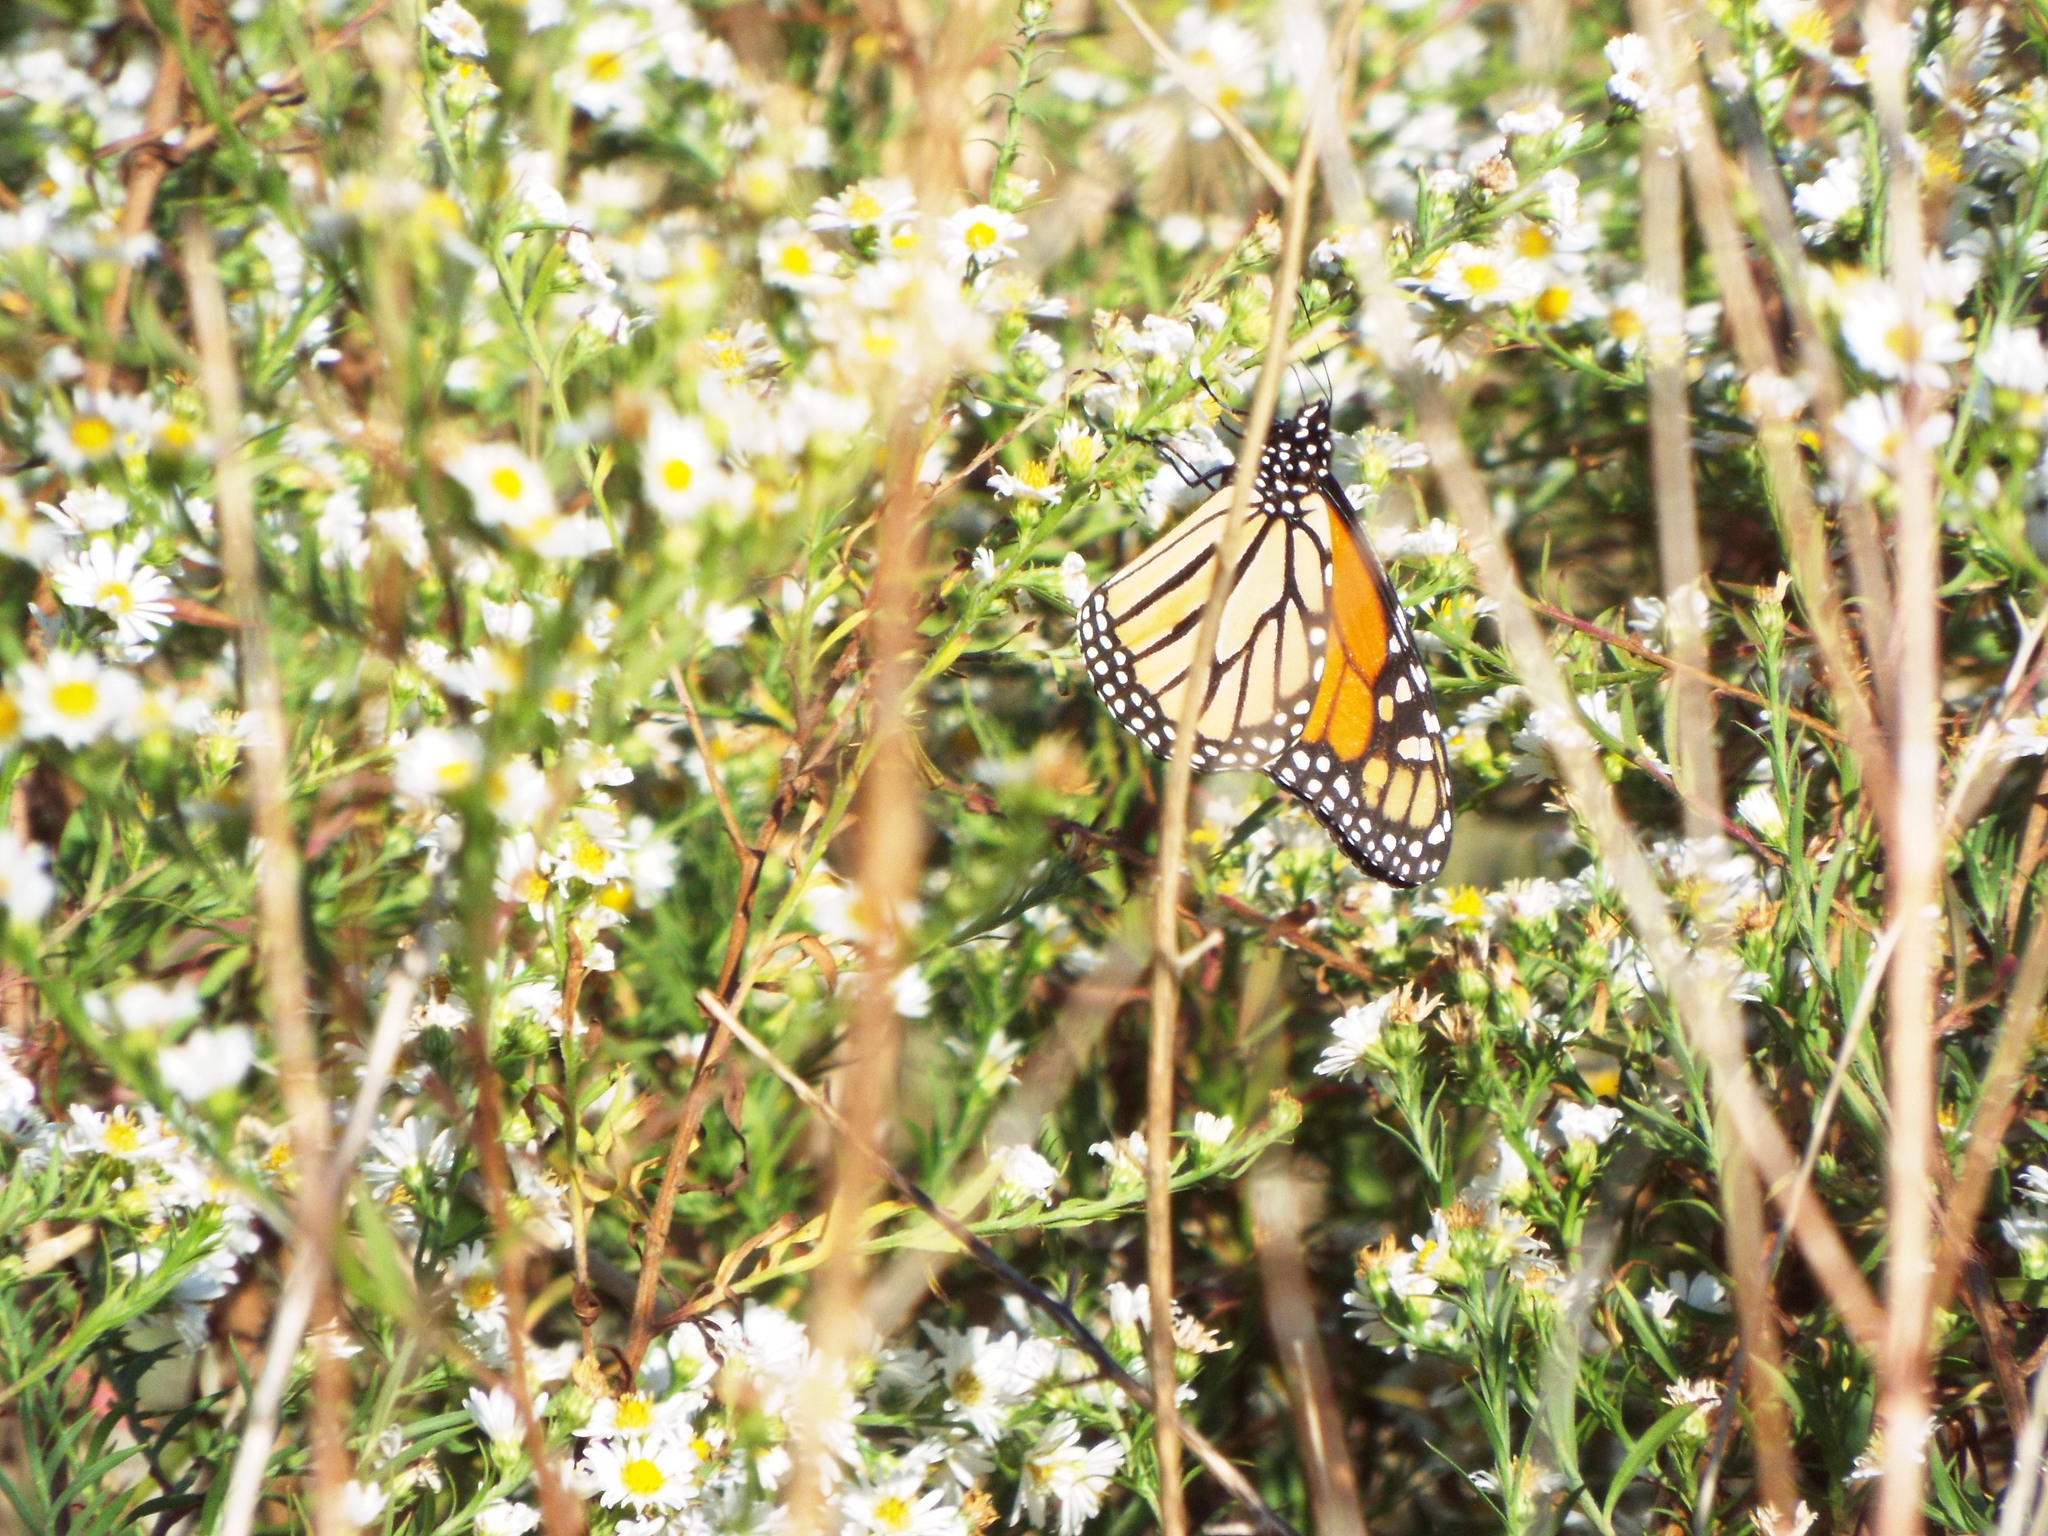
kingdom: Animalia
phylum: Arthropoda
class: Insecta
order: Lepidoptera
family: Nymphalidae
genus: Danaus
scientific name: Danaus plexippus
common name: Monarch
